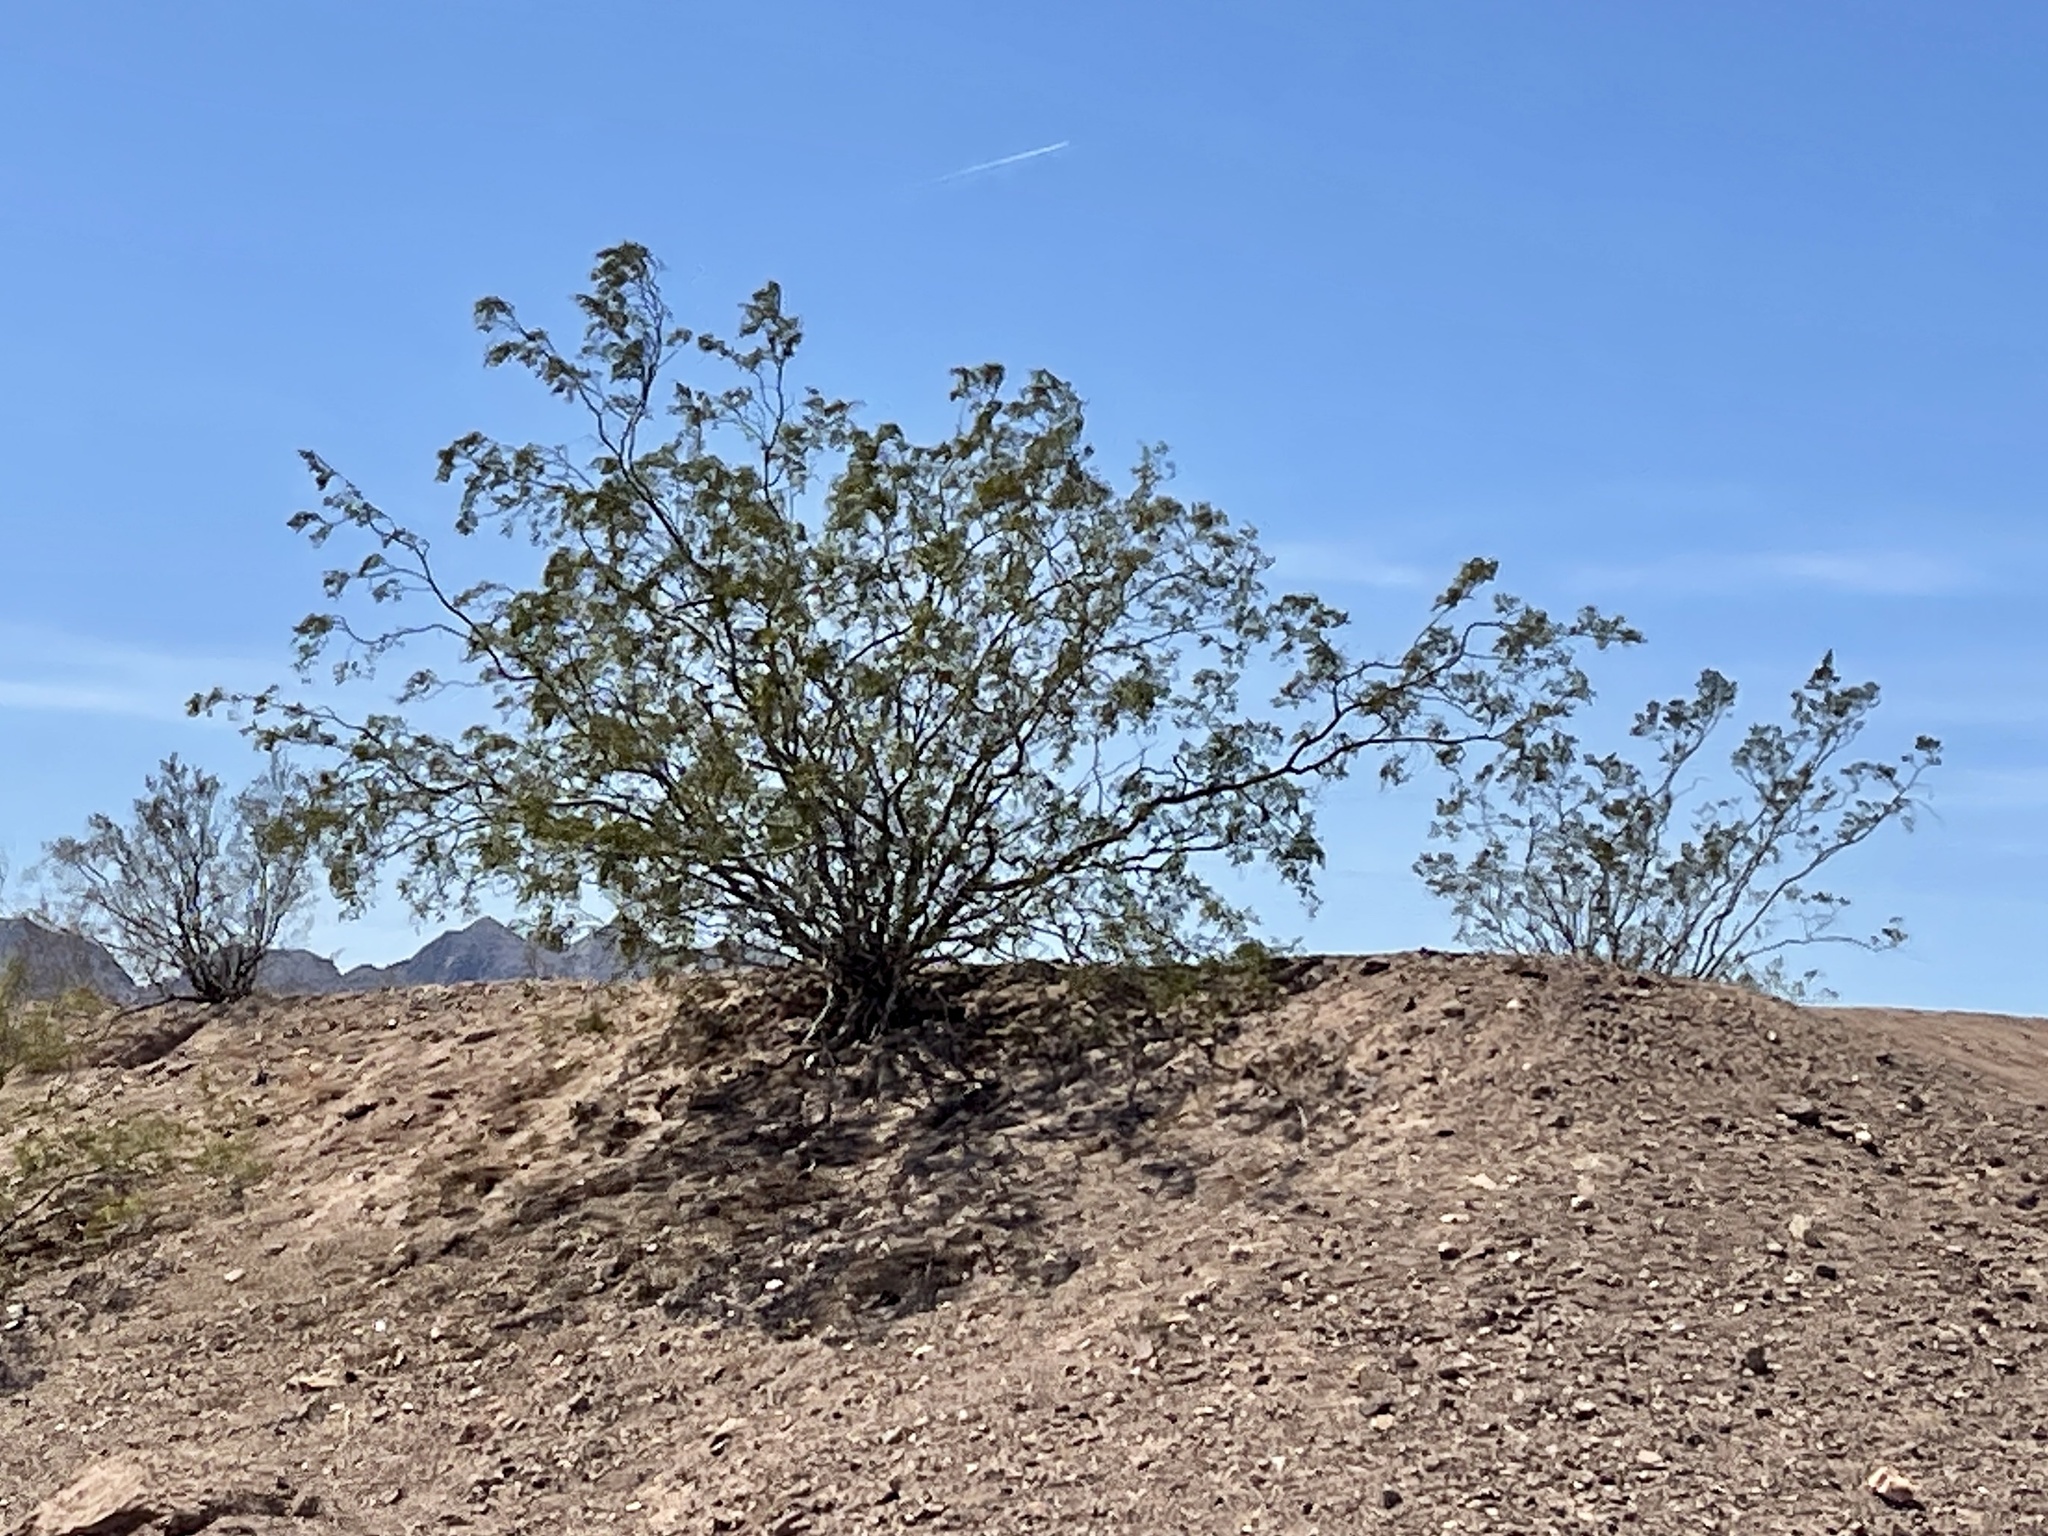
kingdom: Plantae
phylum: Tracheophyta
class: Magnoliopsida
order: Zygophyllales
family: Zygophyllaceae
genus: Larrea
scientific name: Larrea tridentata
